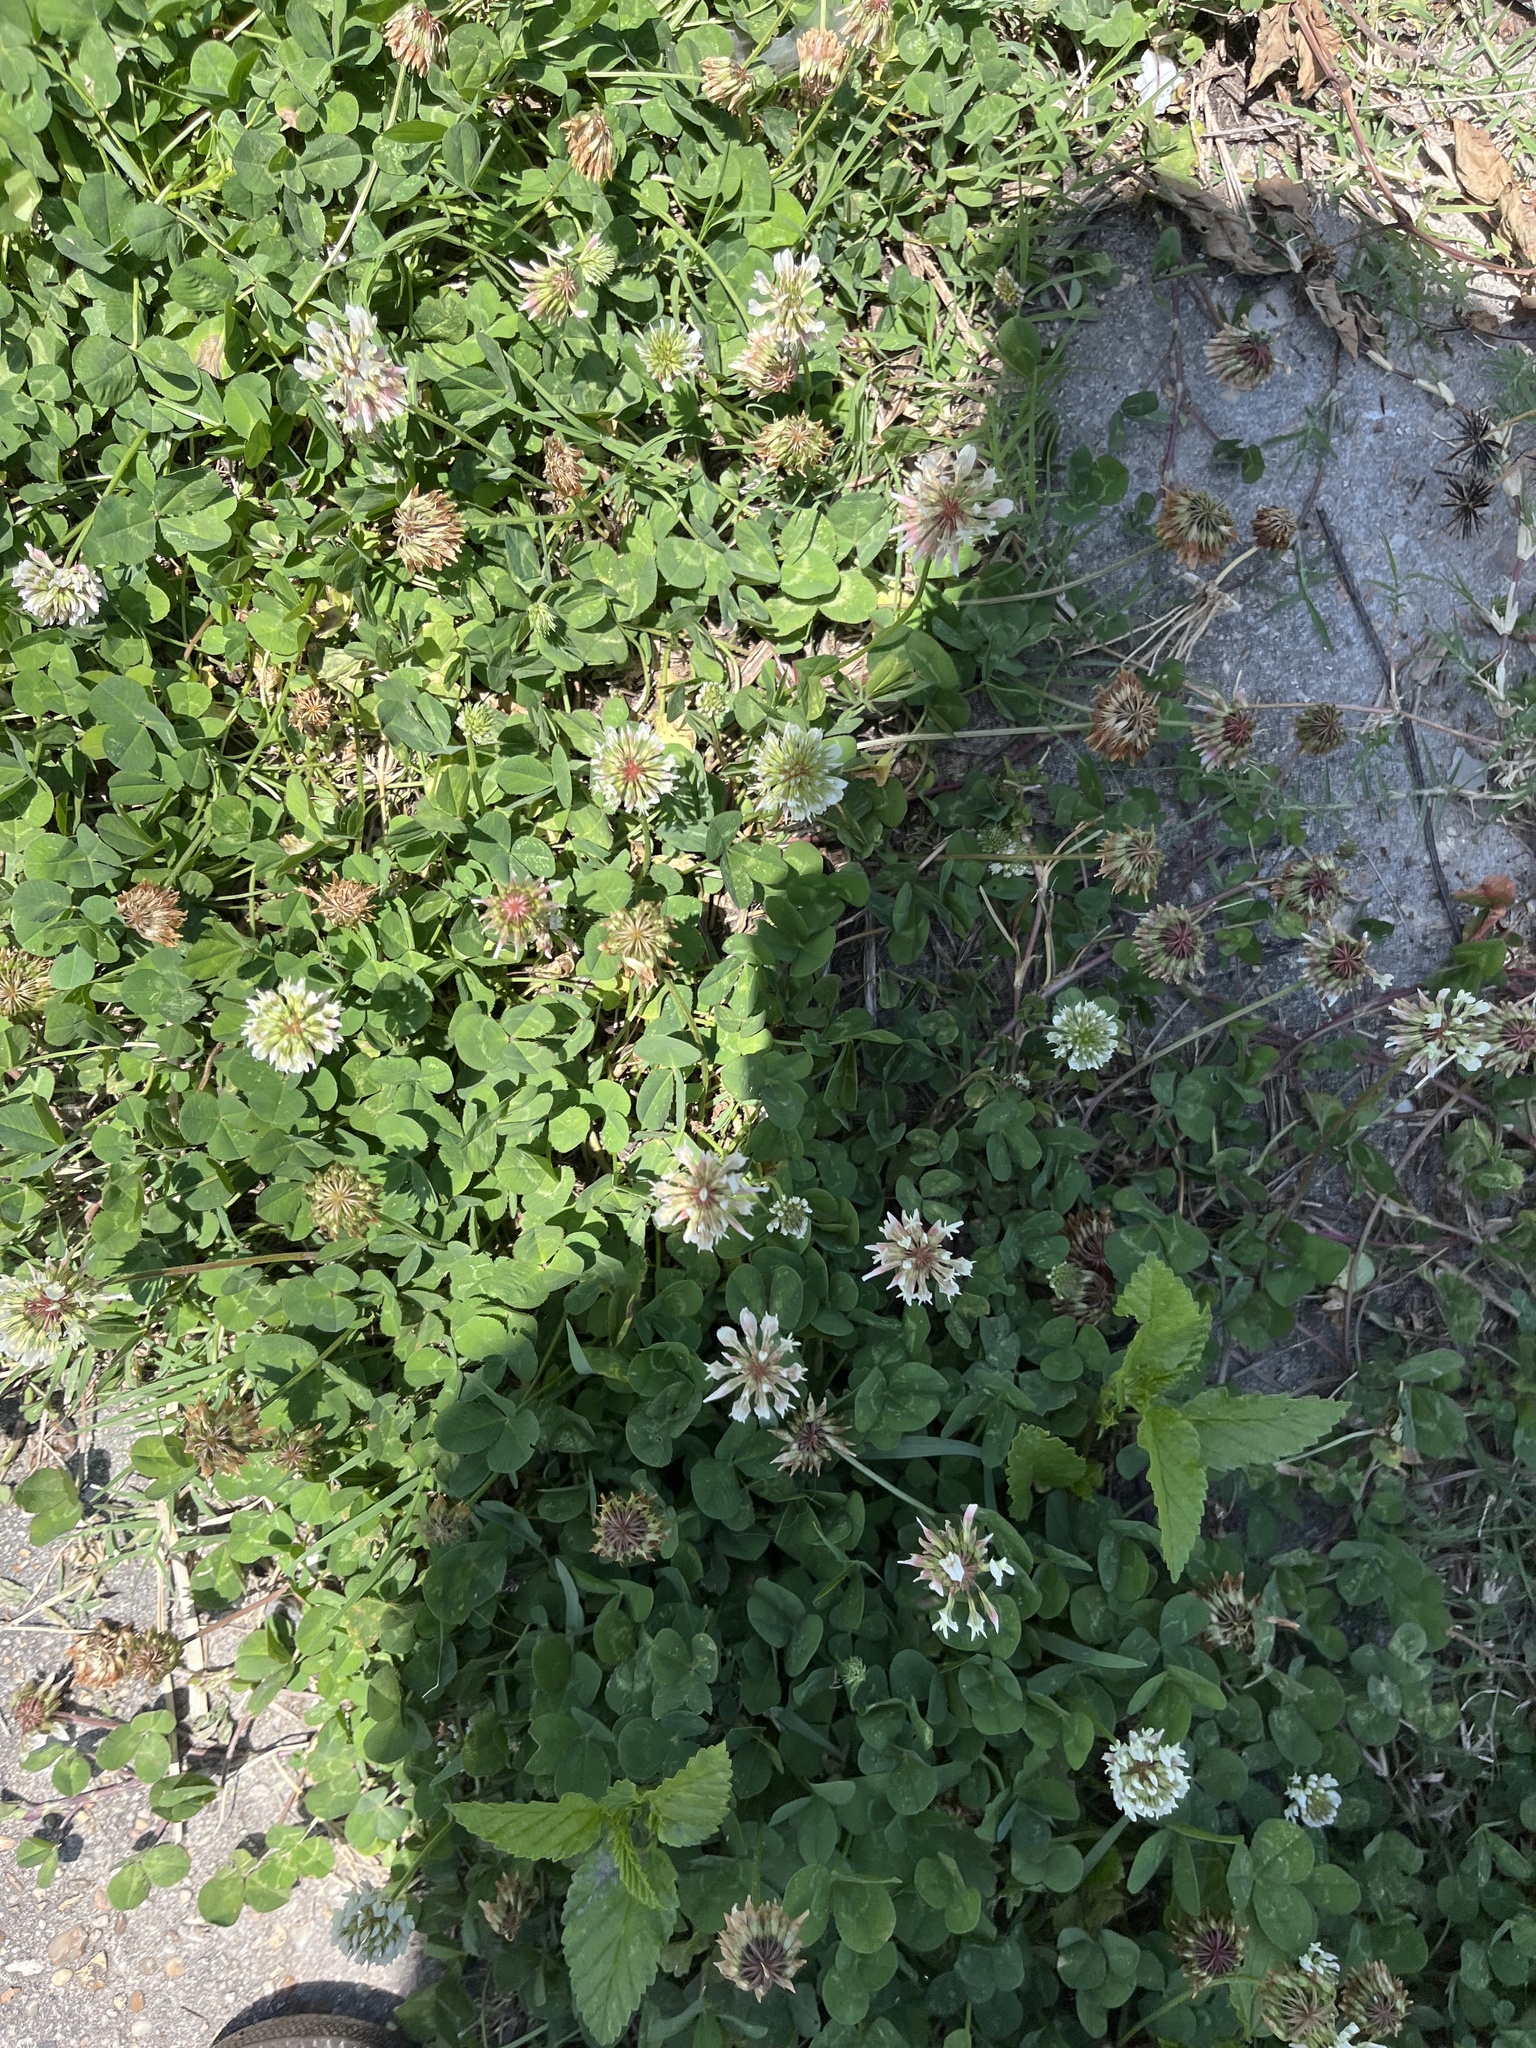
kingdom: Plantae
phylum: Tracheophyta
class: Magnoliopsida
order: Fabales
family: Fabaceae
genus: Trifolium
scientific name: Trifolium repens
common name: White clover
